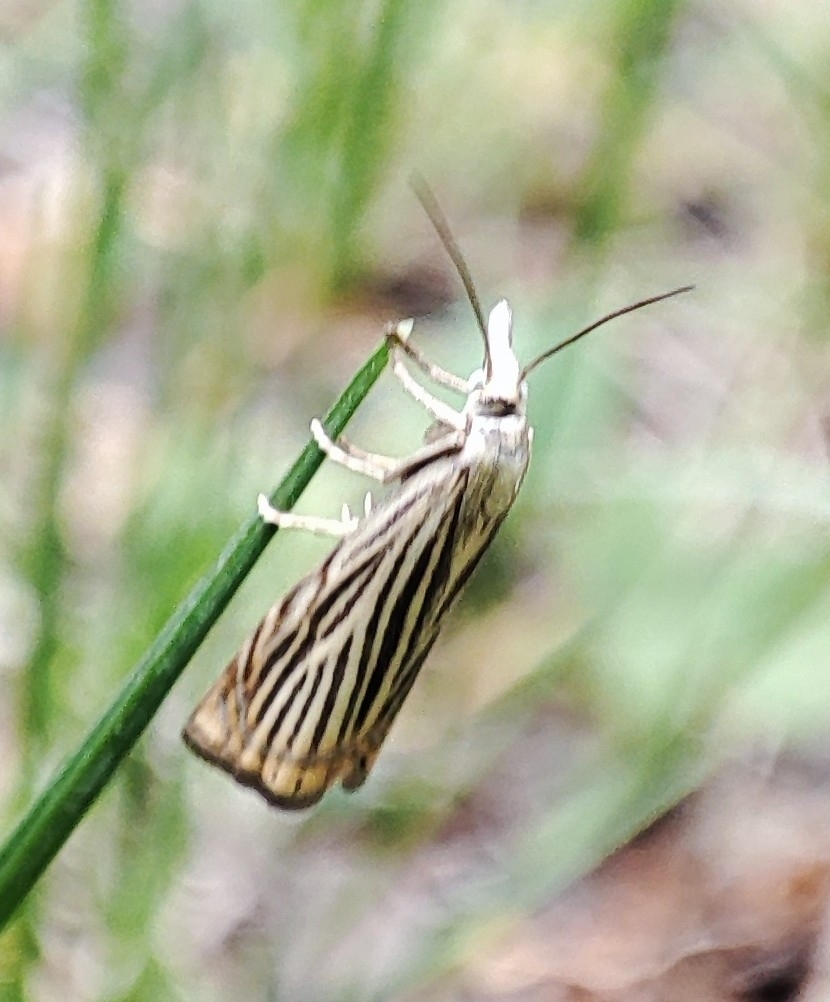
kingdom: Animalia
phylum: Arthropoda
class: Insecta
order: Lepidoptera
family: Crambidae
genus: Chrysoteuchia
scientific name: Chrysoteuchia culmella
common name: Garden grass-veneer
